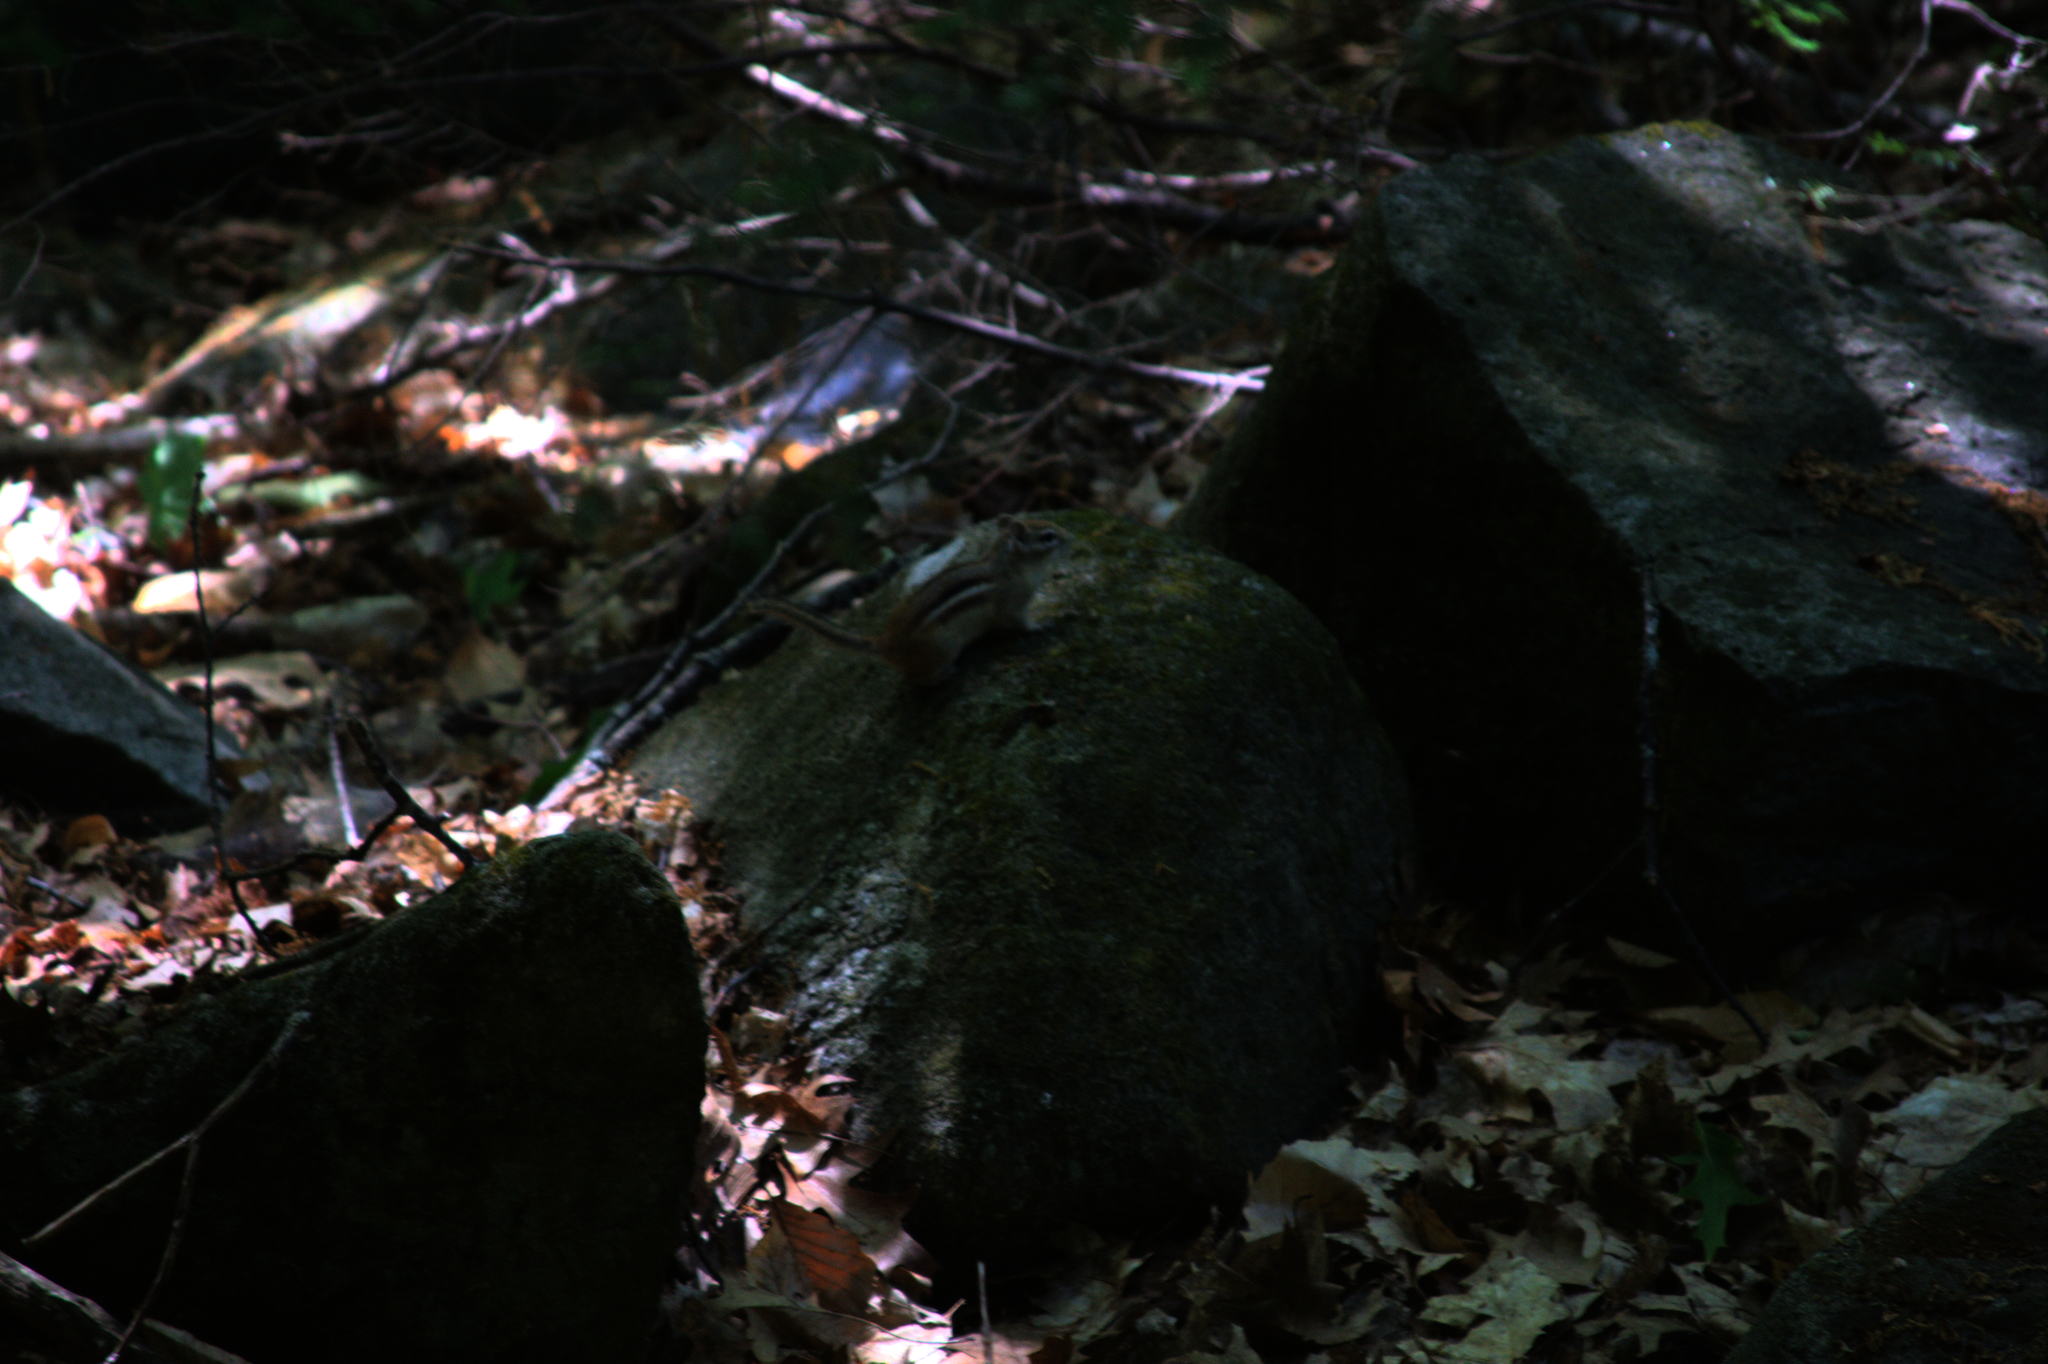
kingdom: Animalia
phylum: Chordata
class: Mammalia
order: Rodentia
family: Sciuridae
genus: Tamias
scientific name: Tamias striatus
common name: Eastern chipmunk
